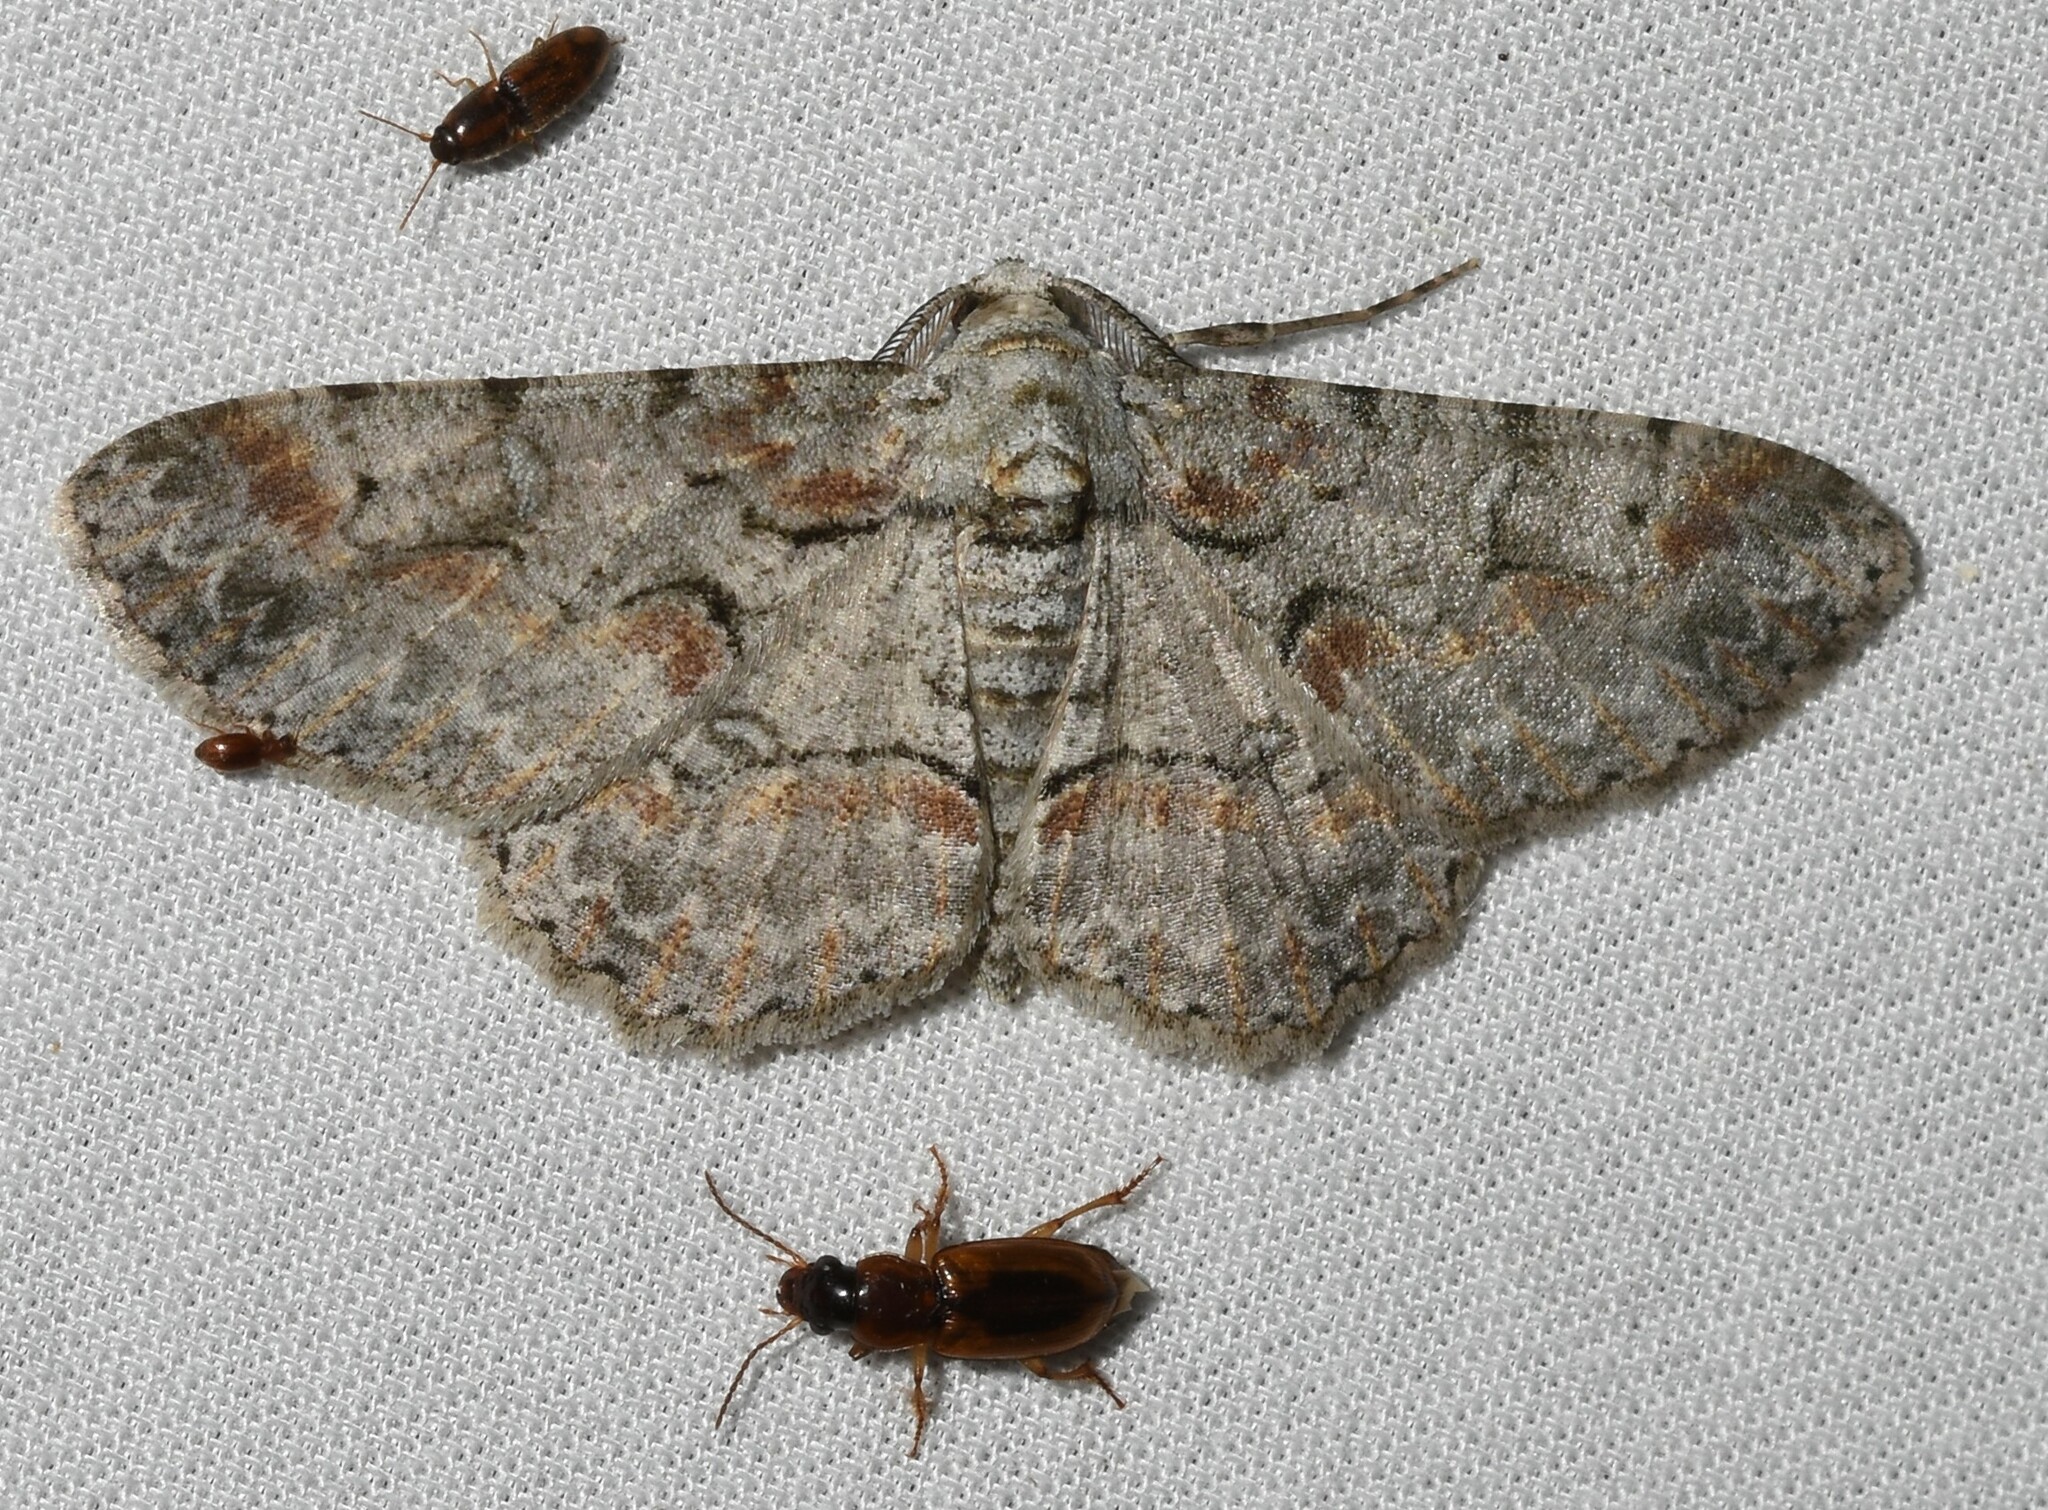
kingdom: Animalia
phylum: Arthropoda
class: Insecta
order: Lepidoptera
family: Geometridae
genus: Iridopsis
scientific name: Iridopsis defectaria
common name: Brown-shaded gray
